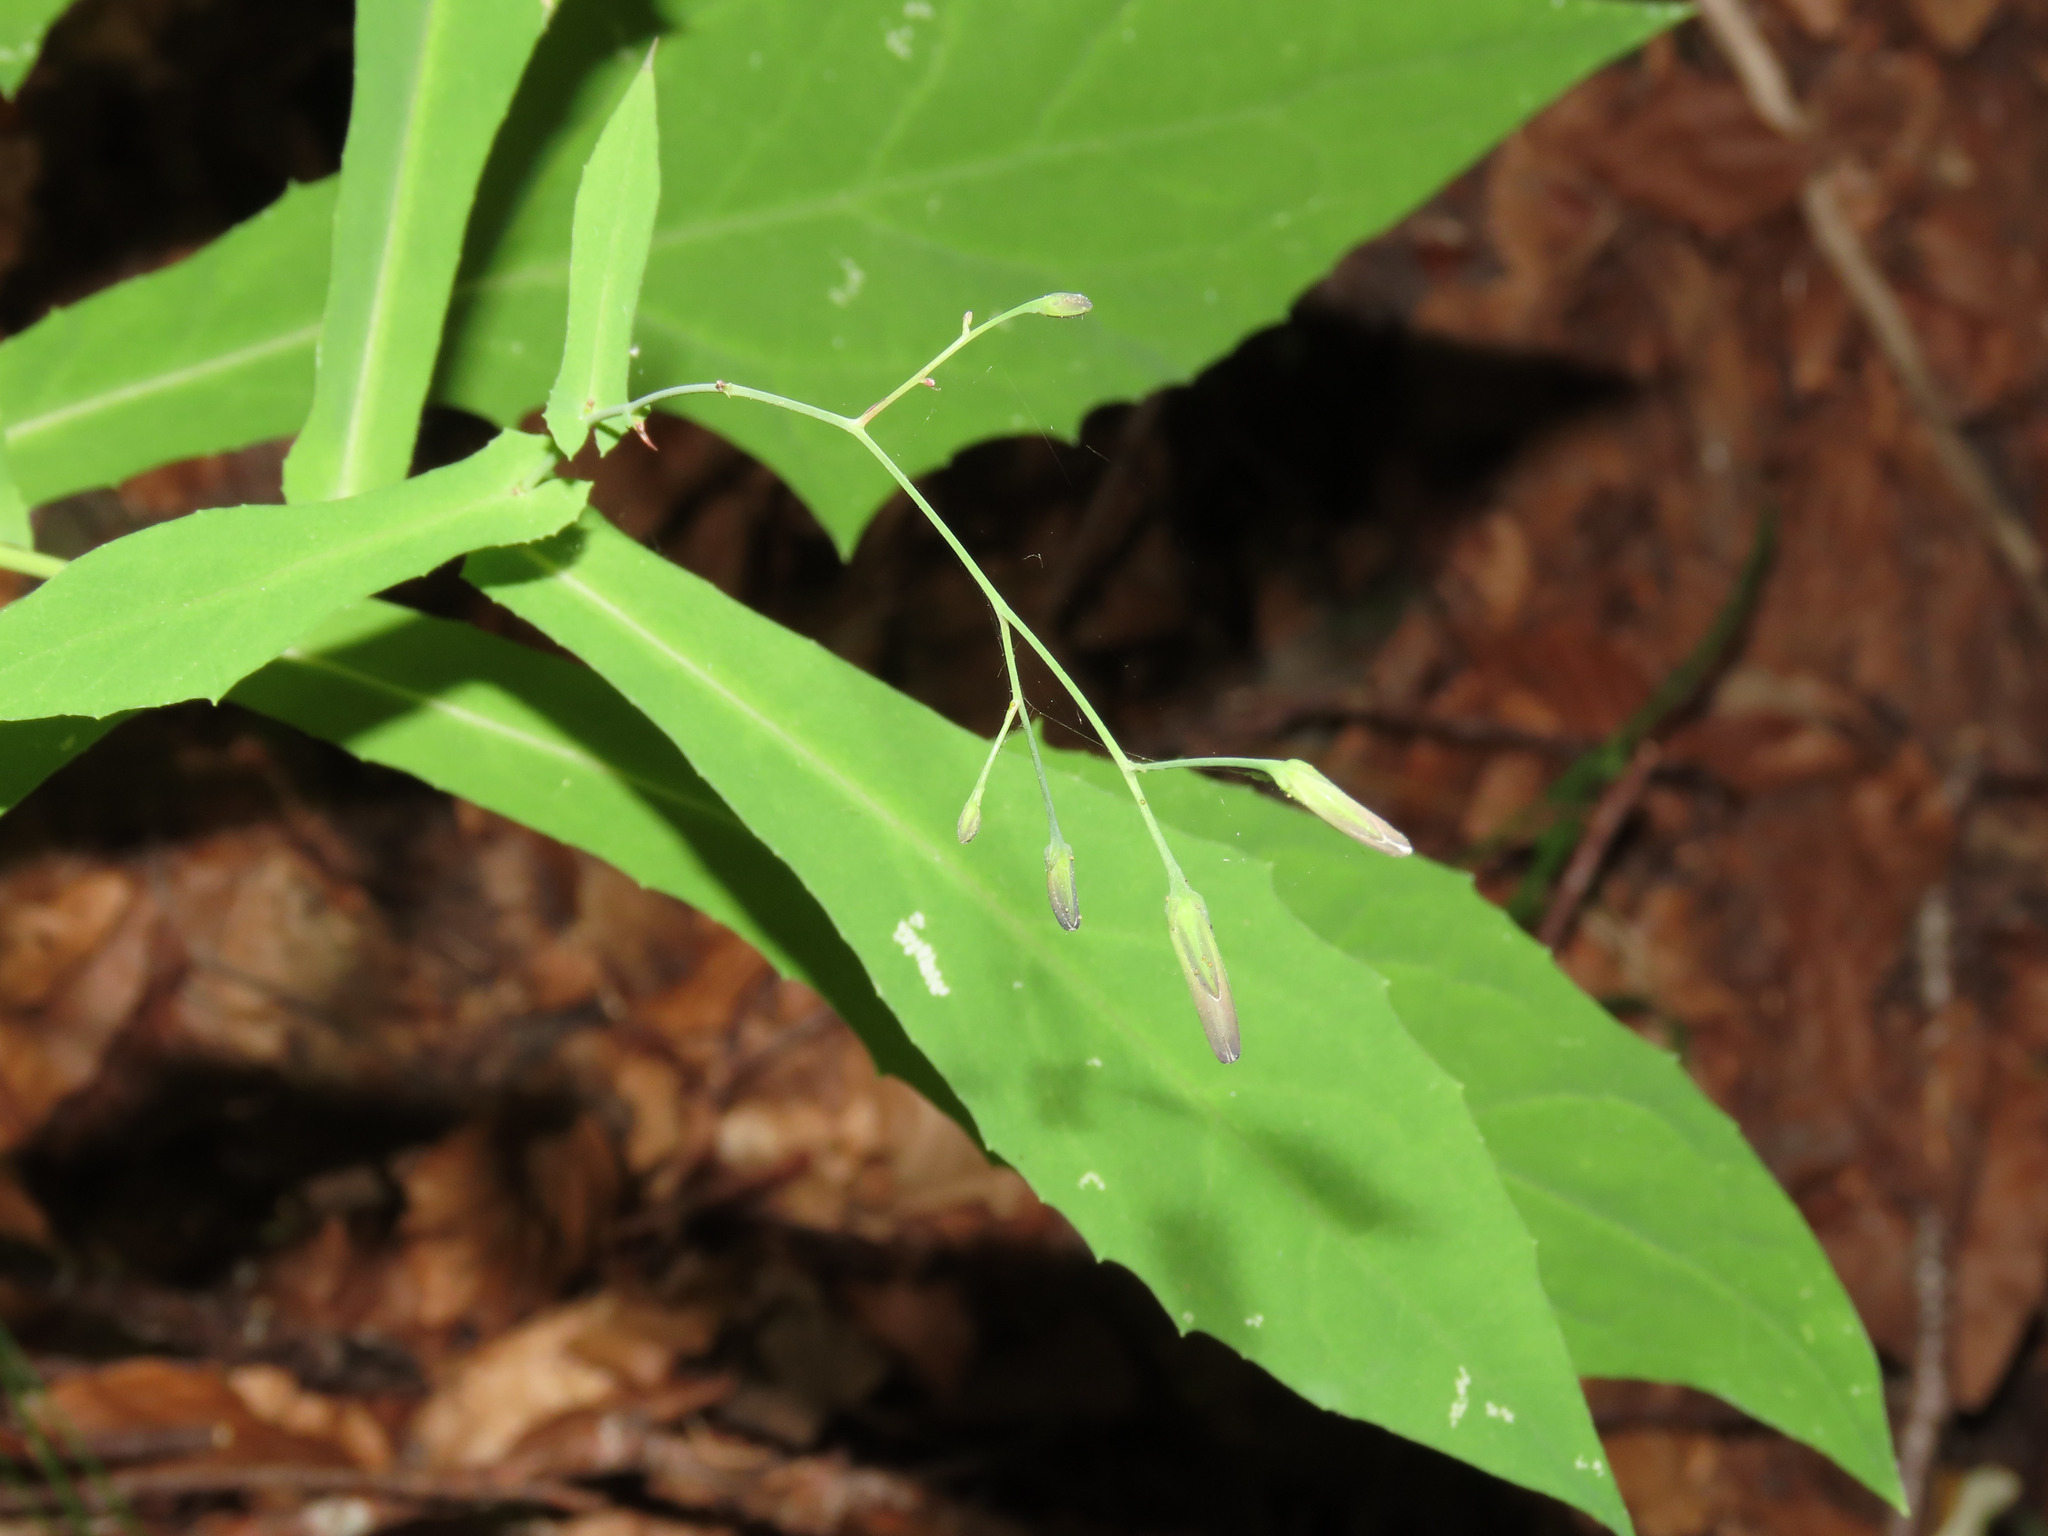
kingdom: Plantae
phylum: Tracheophyta
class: Magnoliopsida
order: Asterales
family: Asteraceae
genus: Prenanthes
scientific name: Prenanthes purpurea
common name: Purple lettuce
